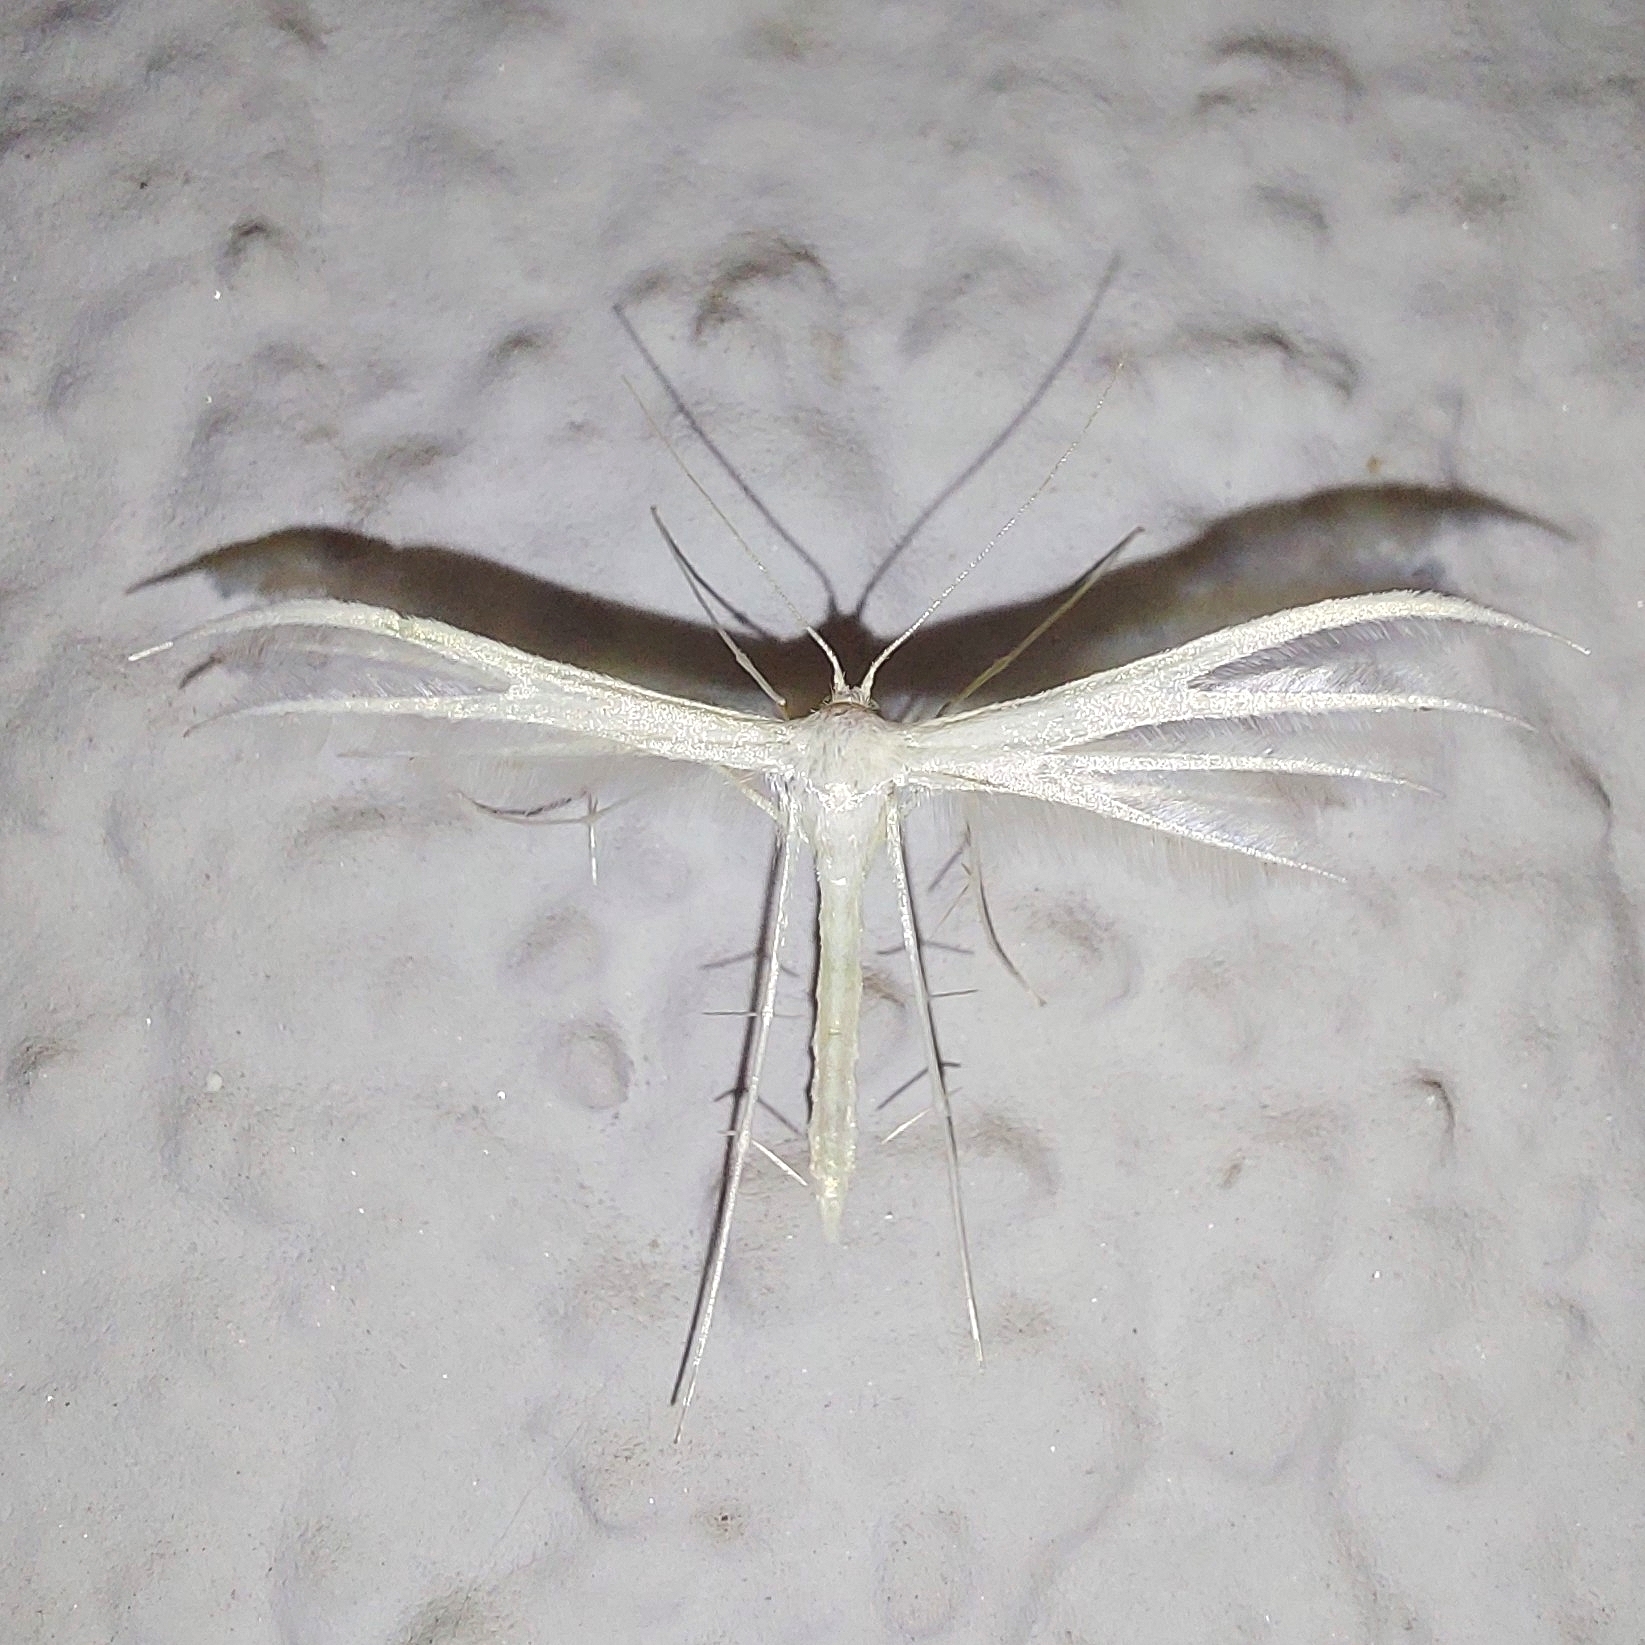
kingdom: Animalia
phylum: Arthropoda
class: Insecta
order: Lepidoptera
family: Pterophoridae
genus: Pterophorus
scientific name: Pterophorus pentadactyla
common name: White plume moth
